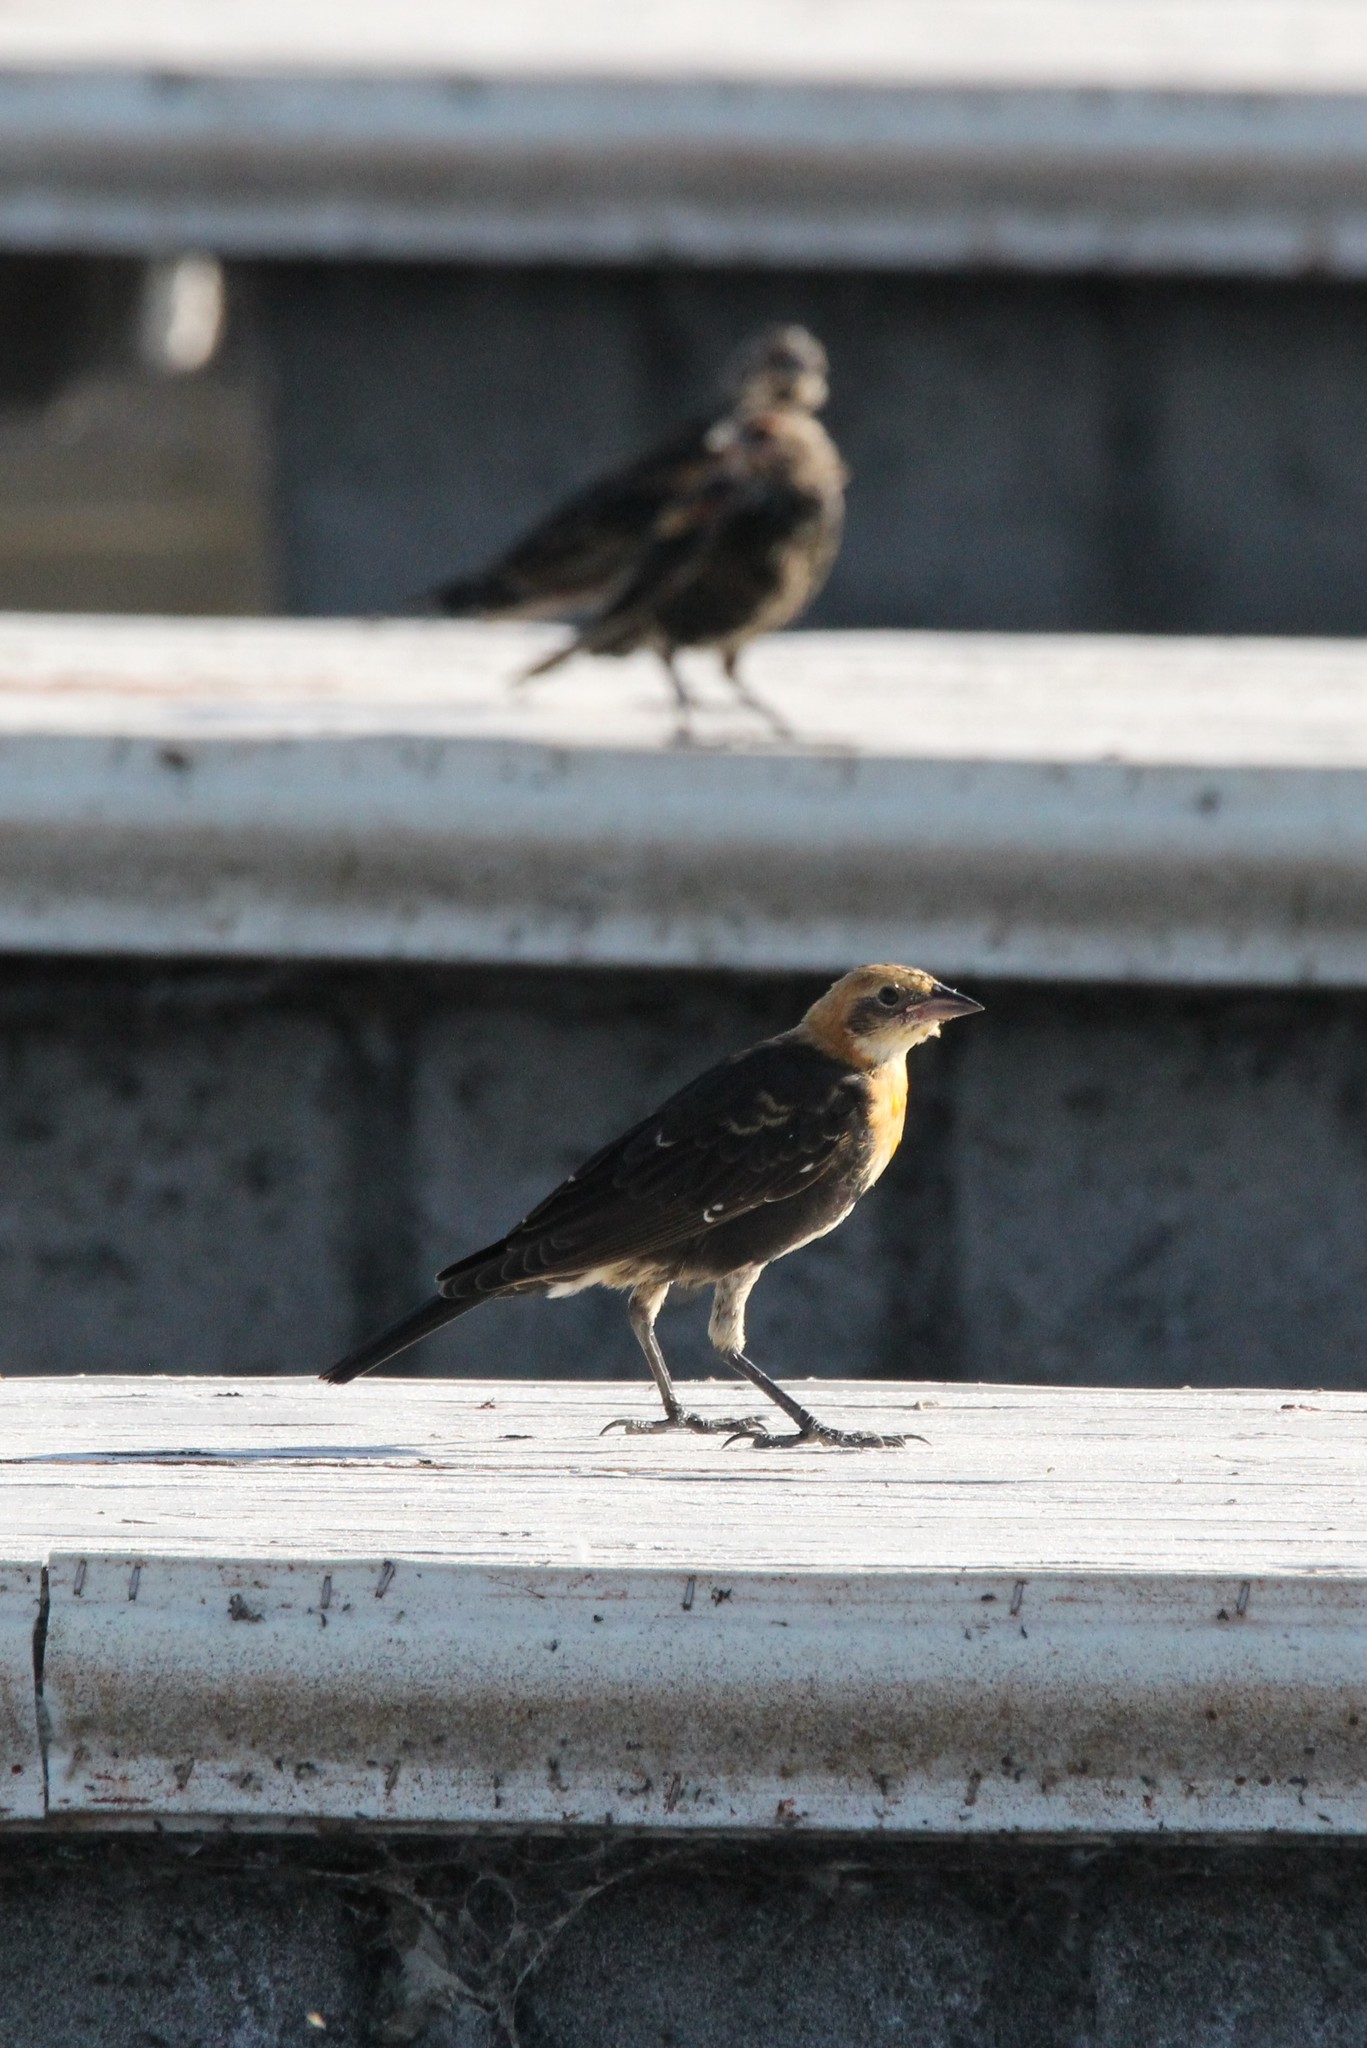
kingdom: Animalia
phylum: Chordata
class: Aves
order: Passeriformes
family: Icteridae
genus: Xanthocephalus
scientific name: Xanthocephalus xanthocephalus
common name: Yellow-headed blackbird
